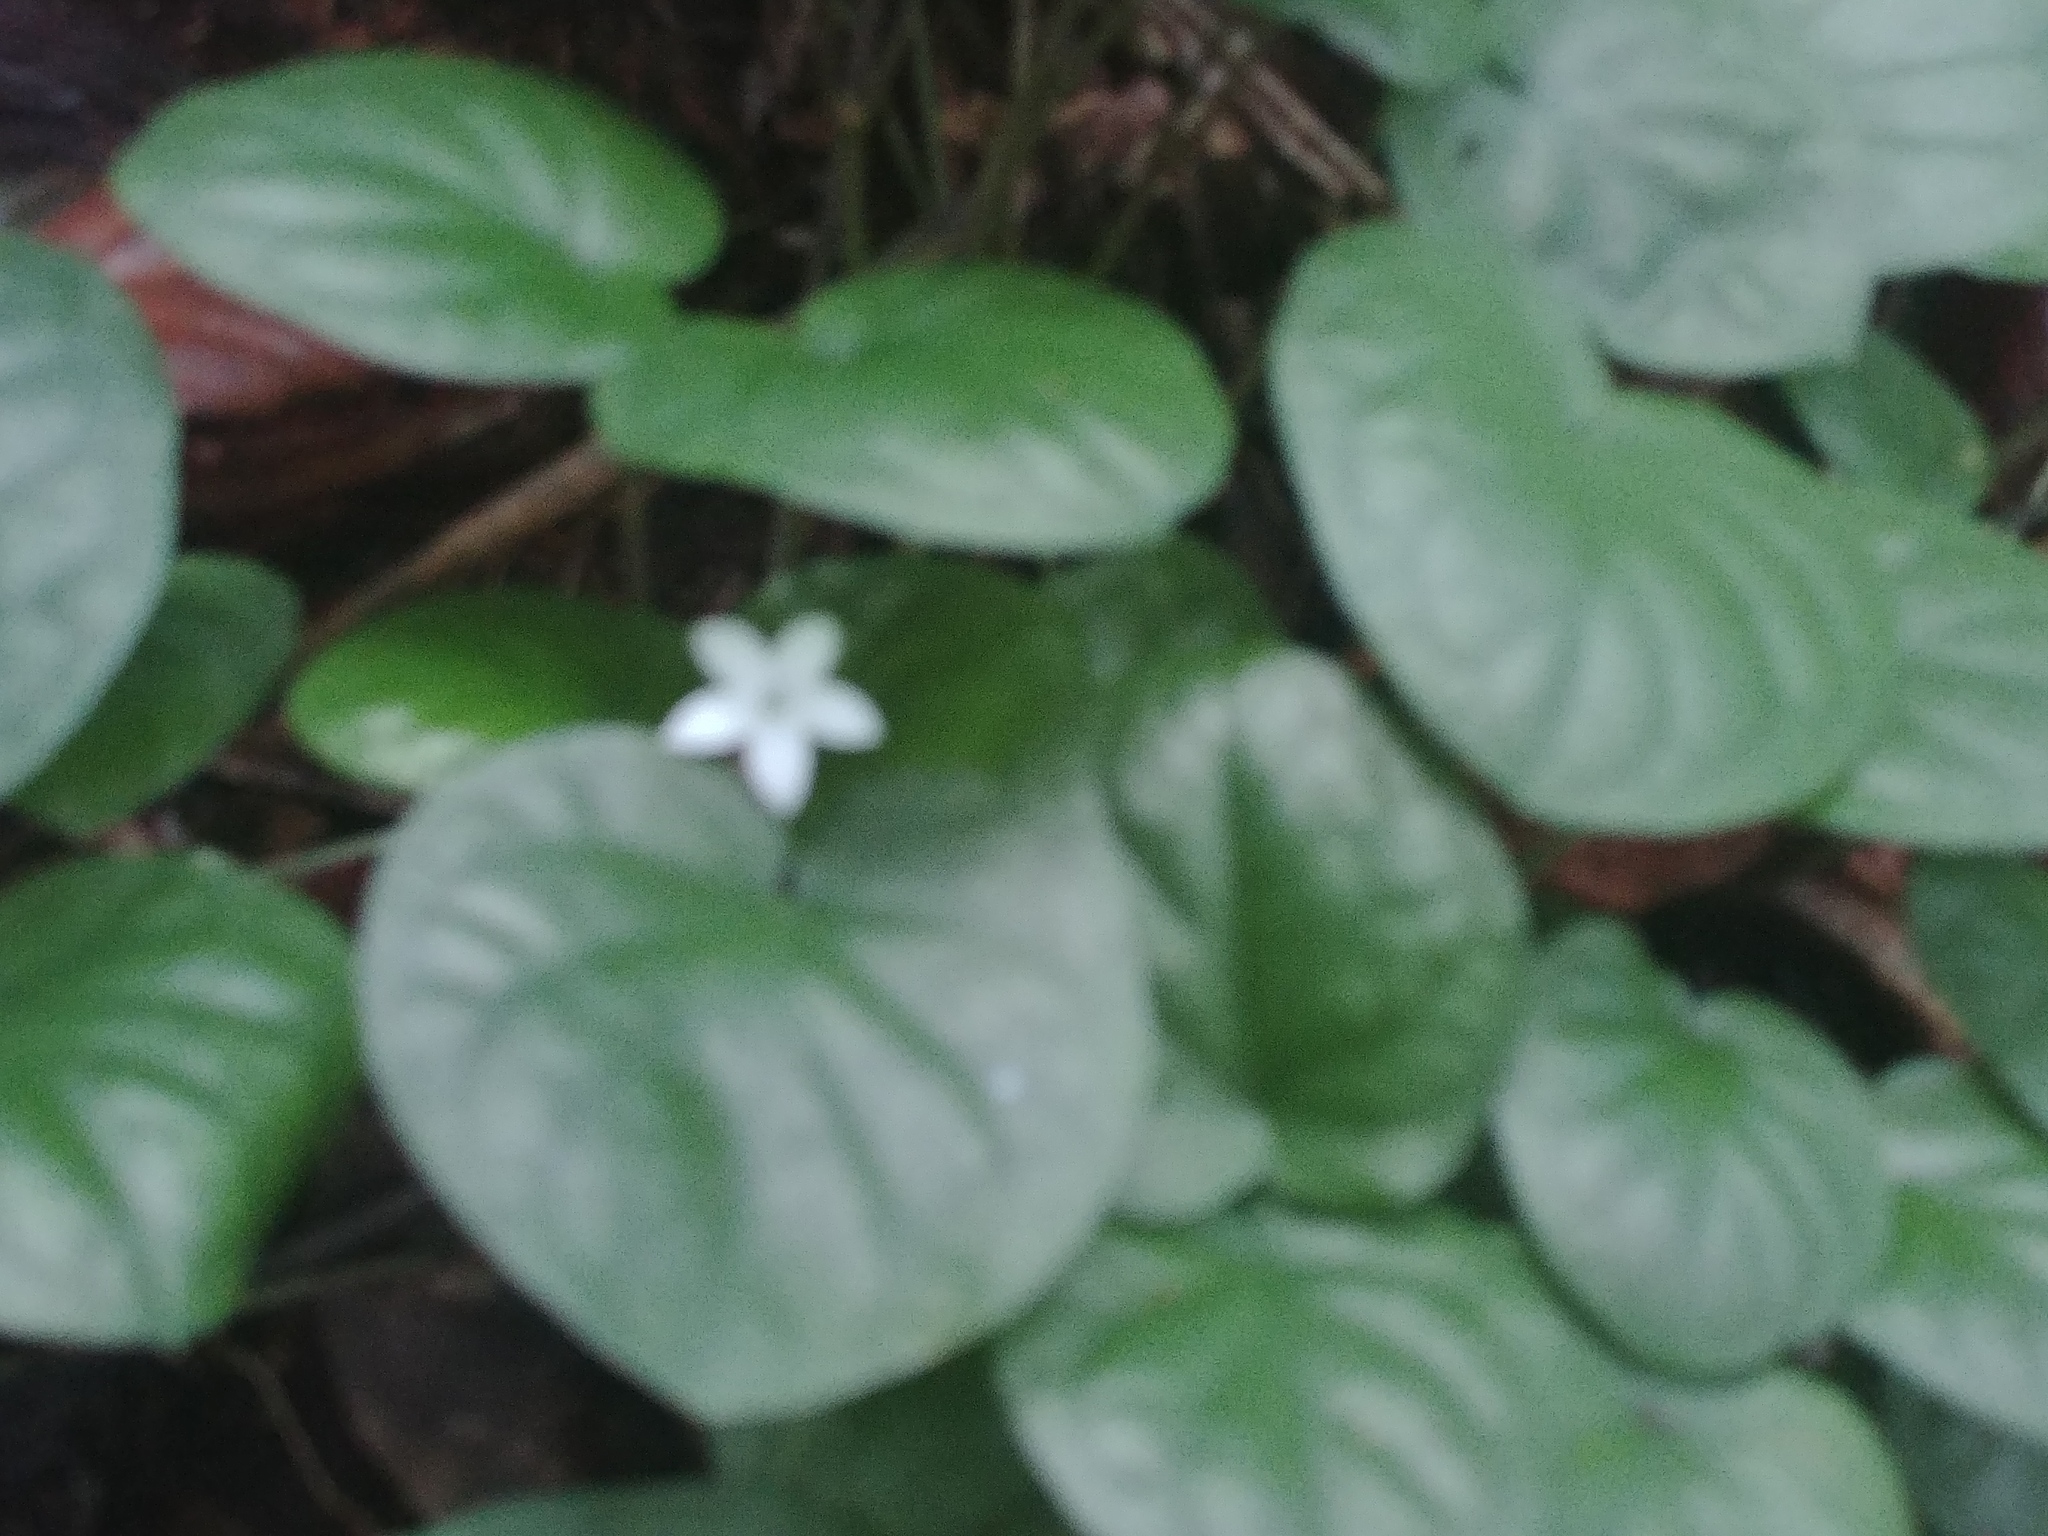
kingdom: Plantae
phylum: Tracheophyta
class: Magnoliopsida
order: Gentianales
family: Rubiaceae
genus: Geophila
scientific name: Geophila repens
